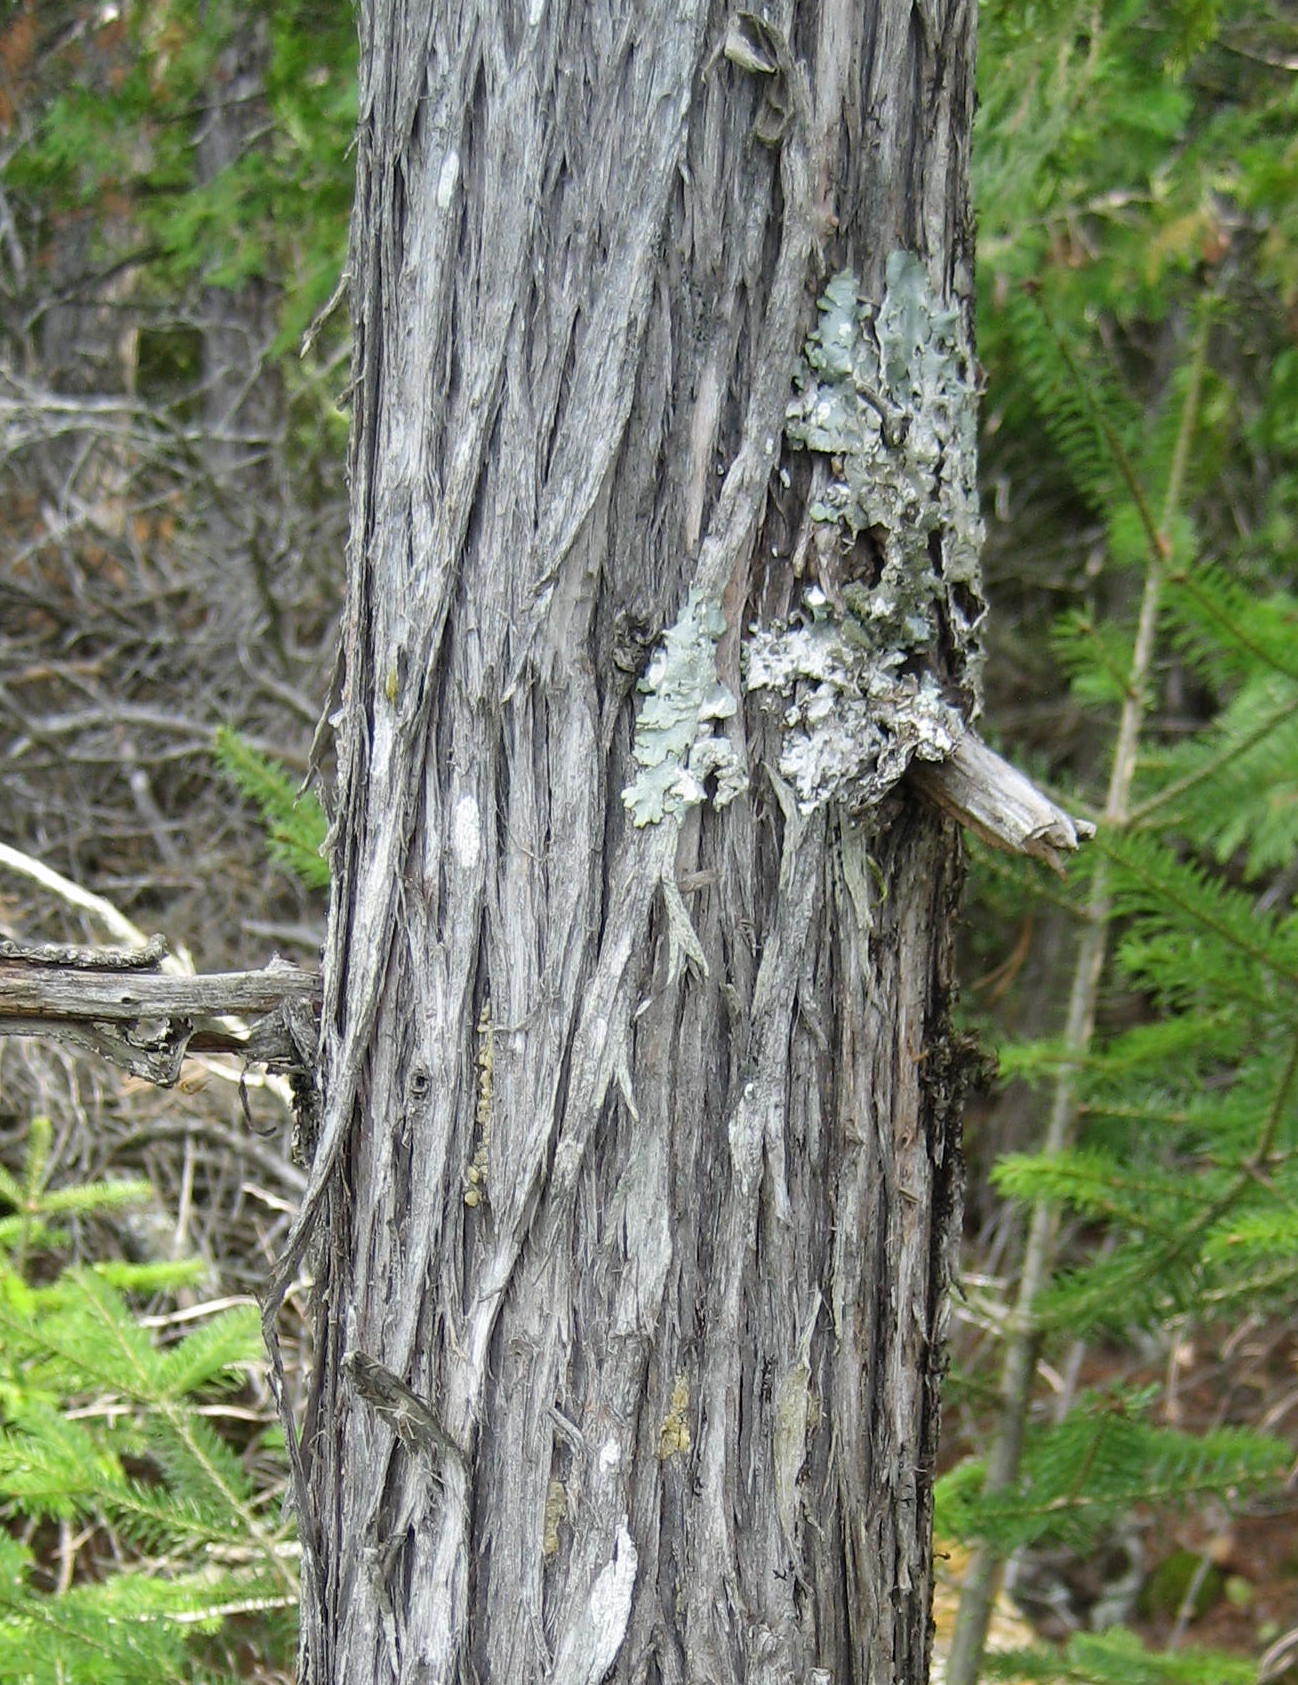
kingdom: Plantae
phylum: Tracheophyta
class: Pinopsida
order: Pinales
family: Cupressaceae
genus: Thuja
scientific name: Thuja occidentalis
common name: Northern white-cedar
